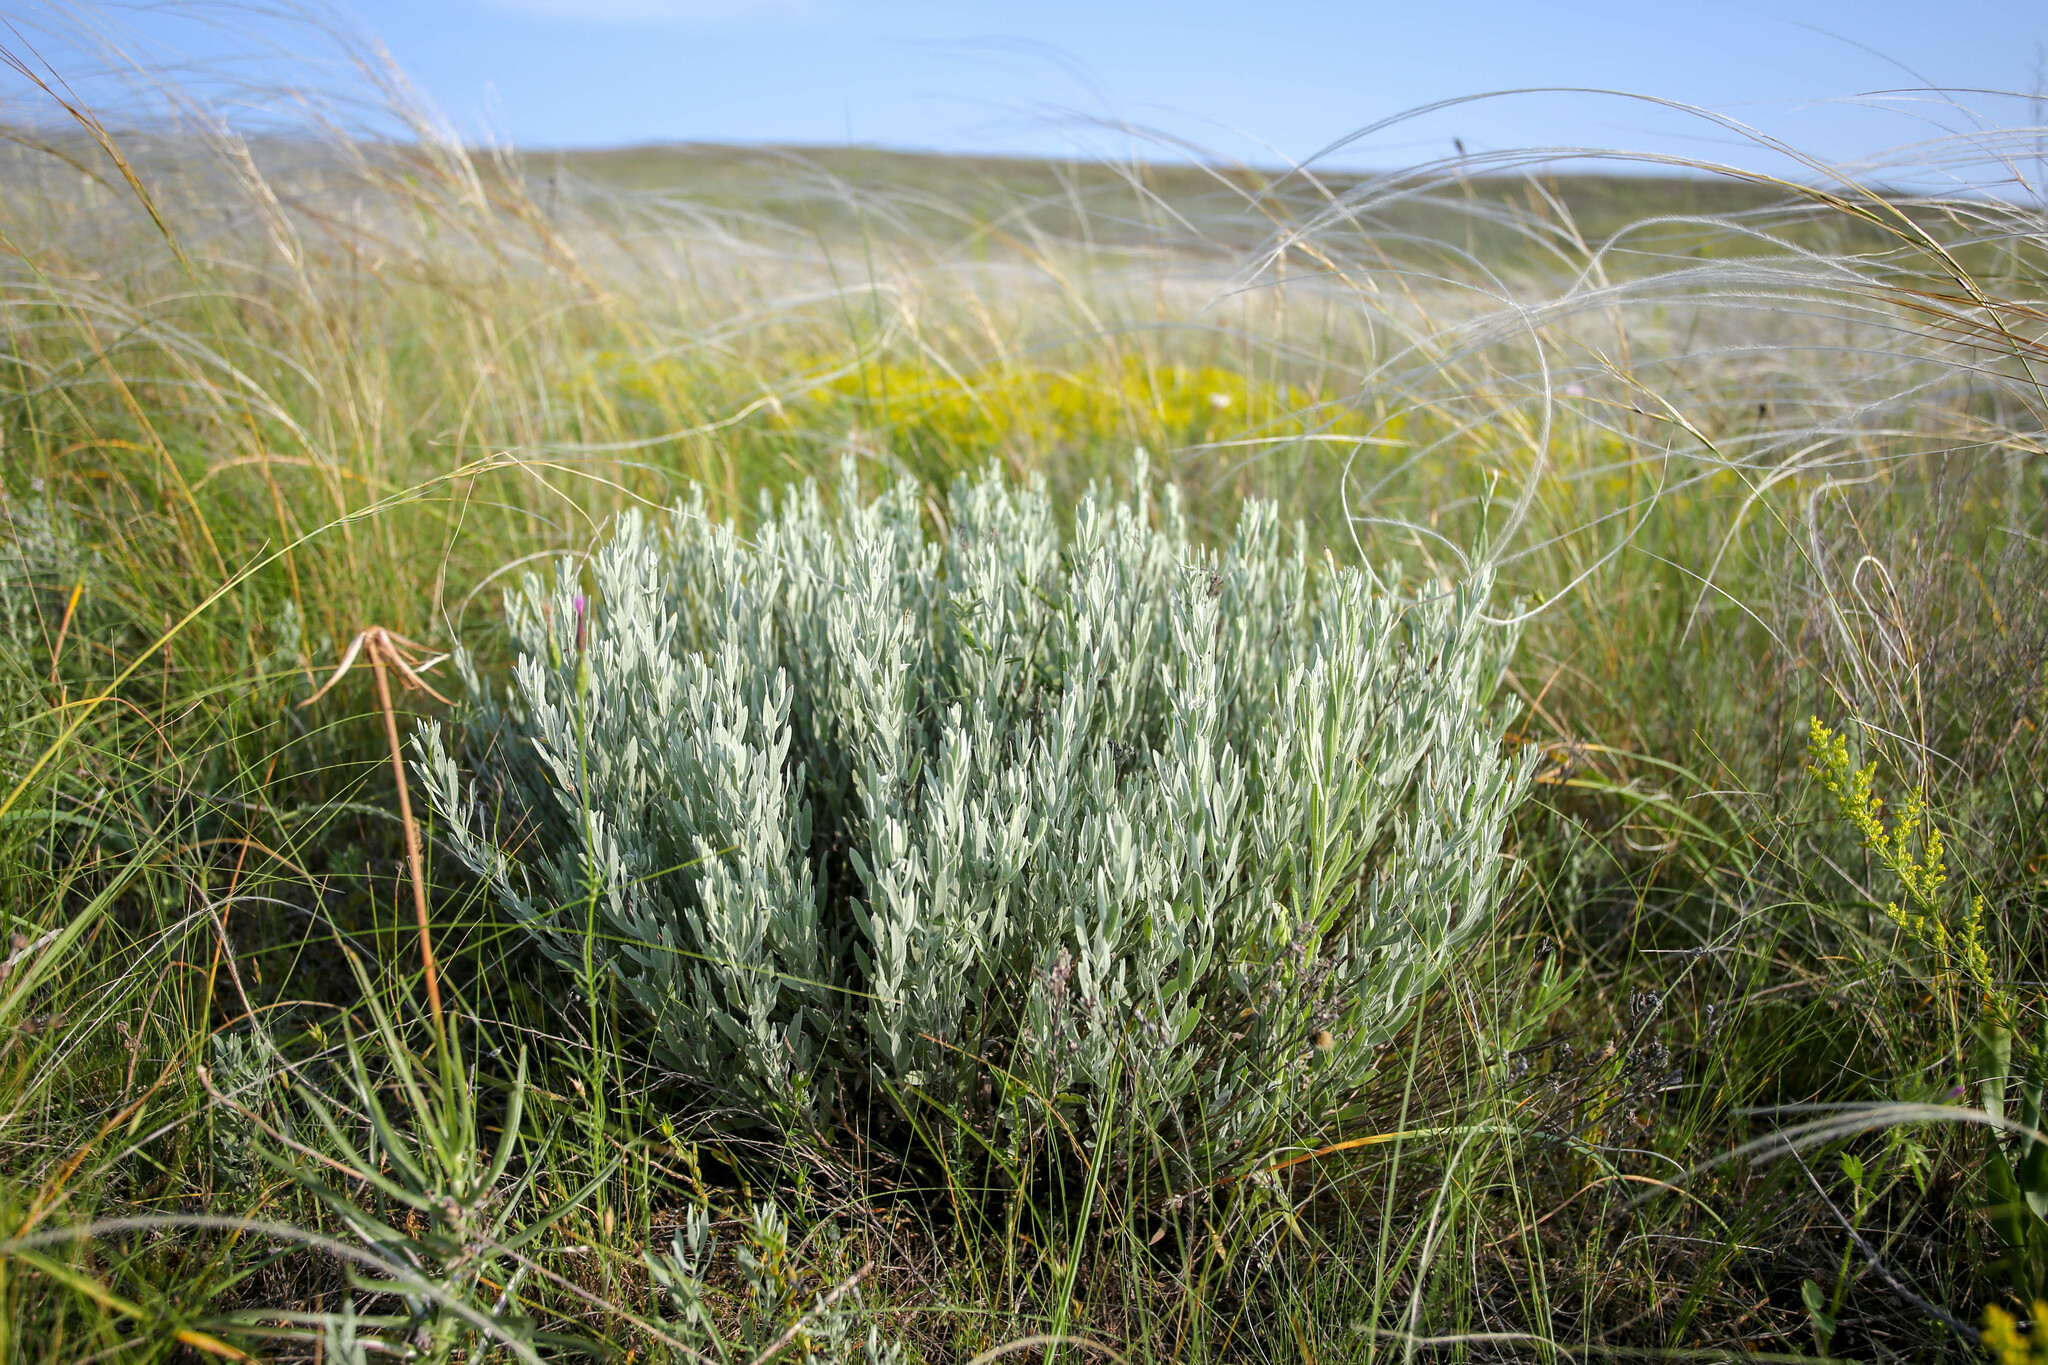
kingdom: Plantae
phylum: Tracheophyta
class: Magnoliopsida
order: Asterales
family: Asteraceae
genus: Galatella
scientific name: Galatella villosa
